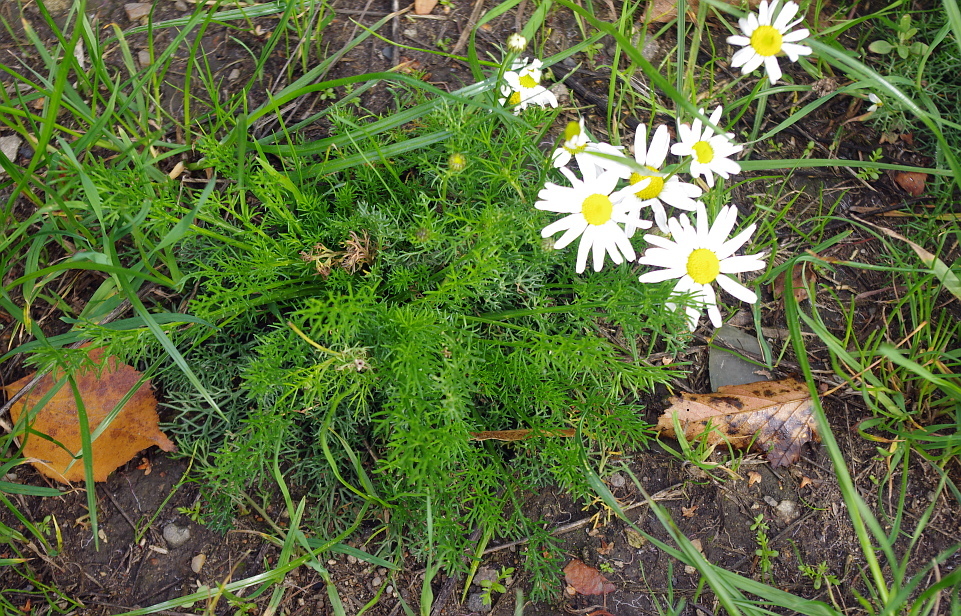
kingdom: Plantae
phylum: Tracheophyta
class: Magnoliopsida
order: Asterales
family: Asteraceae
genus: Tripleurospermum
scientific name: Tripleurospermum inodorum
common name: Scentless mayweed
